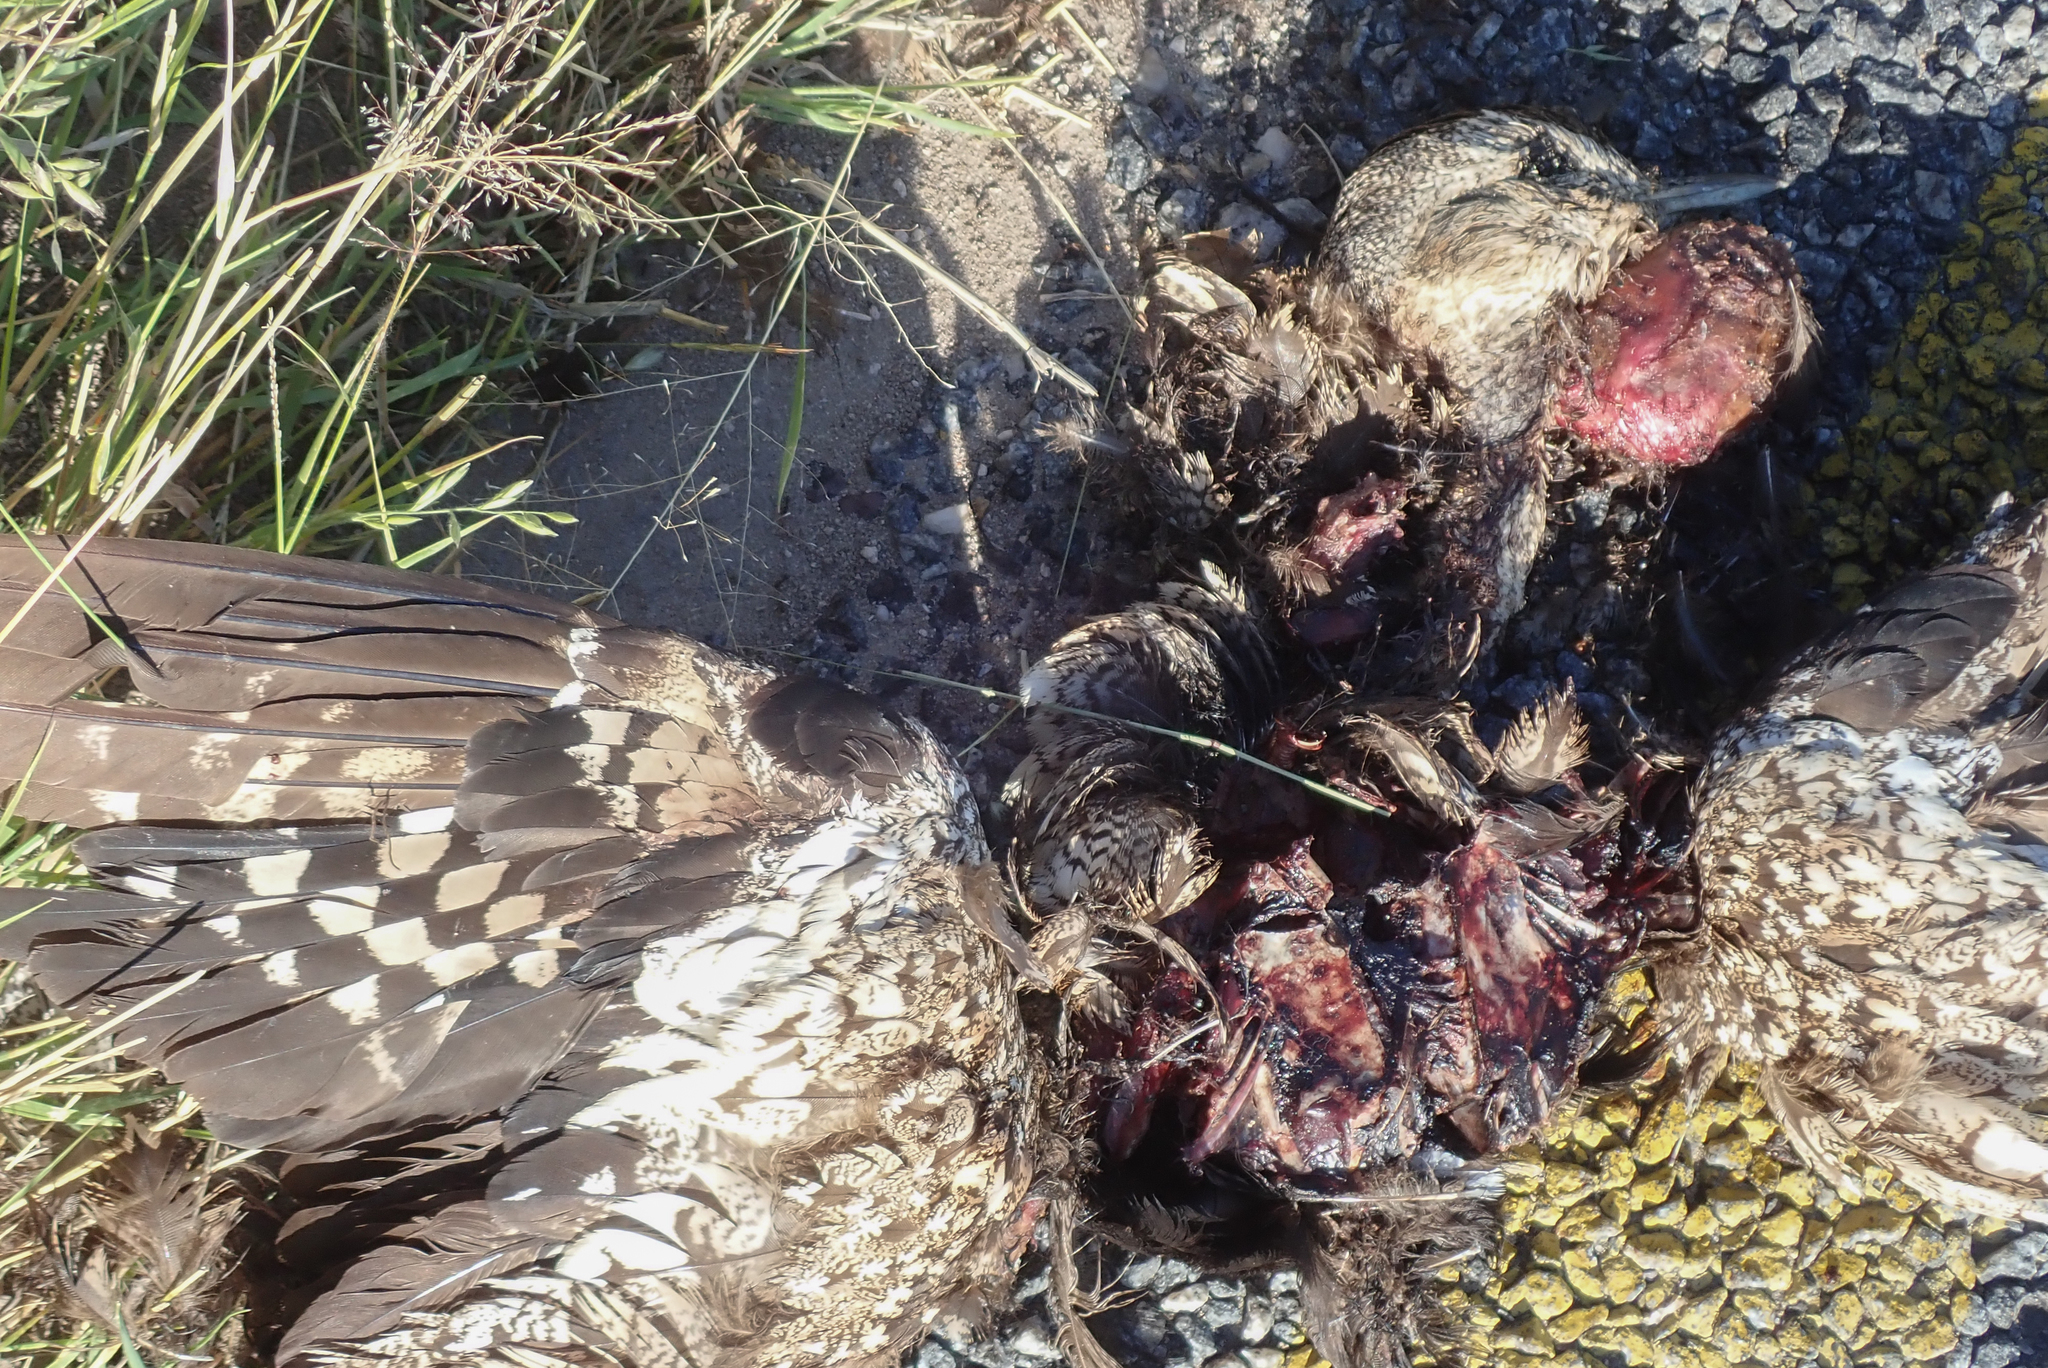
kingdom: Animalia
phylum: Chordata
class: Aves
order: Otidiformes
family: Otididae
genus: Lophotis
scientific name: Lophotis ruficrista
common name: Red-crested korhaan
